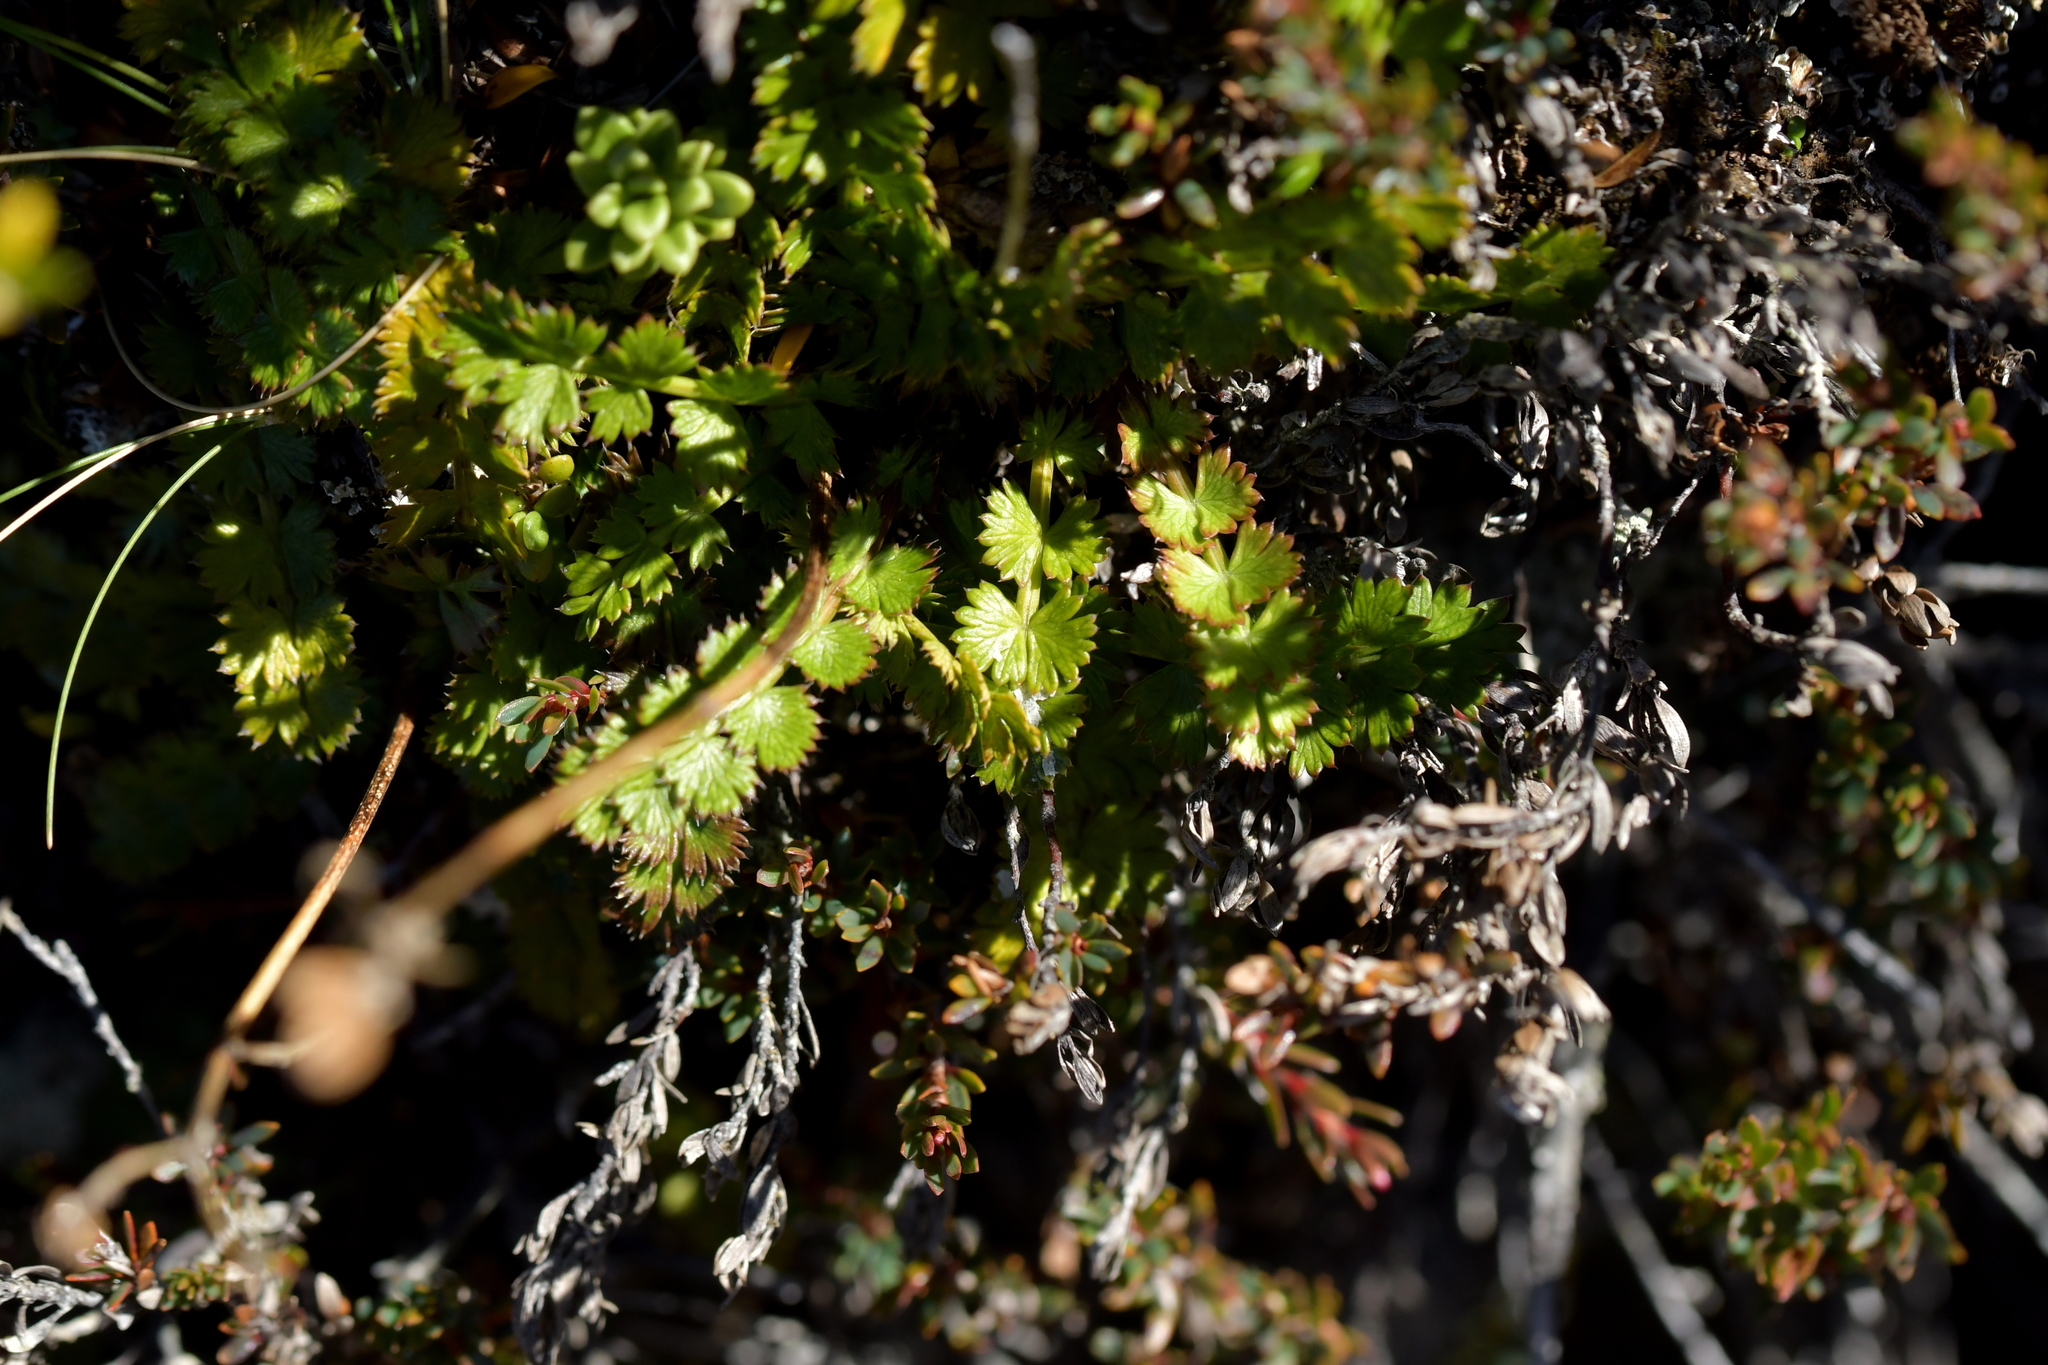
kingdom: Plantae
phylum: Tracheophyta
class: Magnoliopsida
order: Apiales
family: Apiaceae
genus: Anisotome
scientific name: Anisotome aromatica
